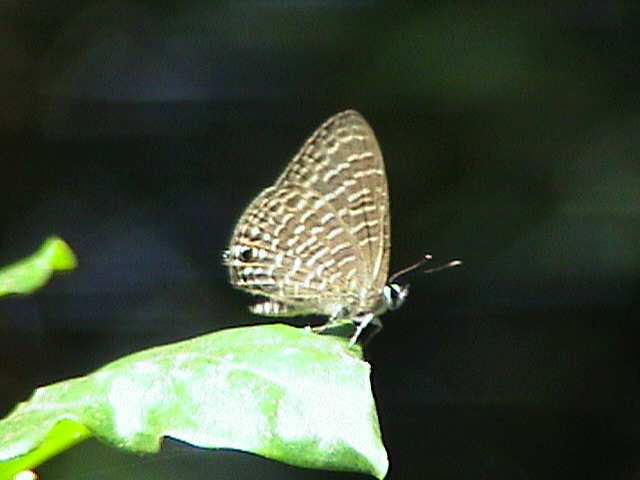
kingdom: Animalia
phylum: Arthropoda
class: Insecta
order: Lepidoptera
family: Lycaenidae
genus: Nacaduba
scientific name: Nacaduba kurava
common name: Transparent 6-line blue
